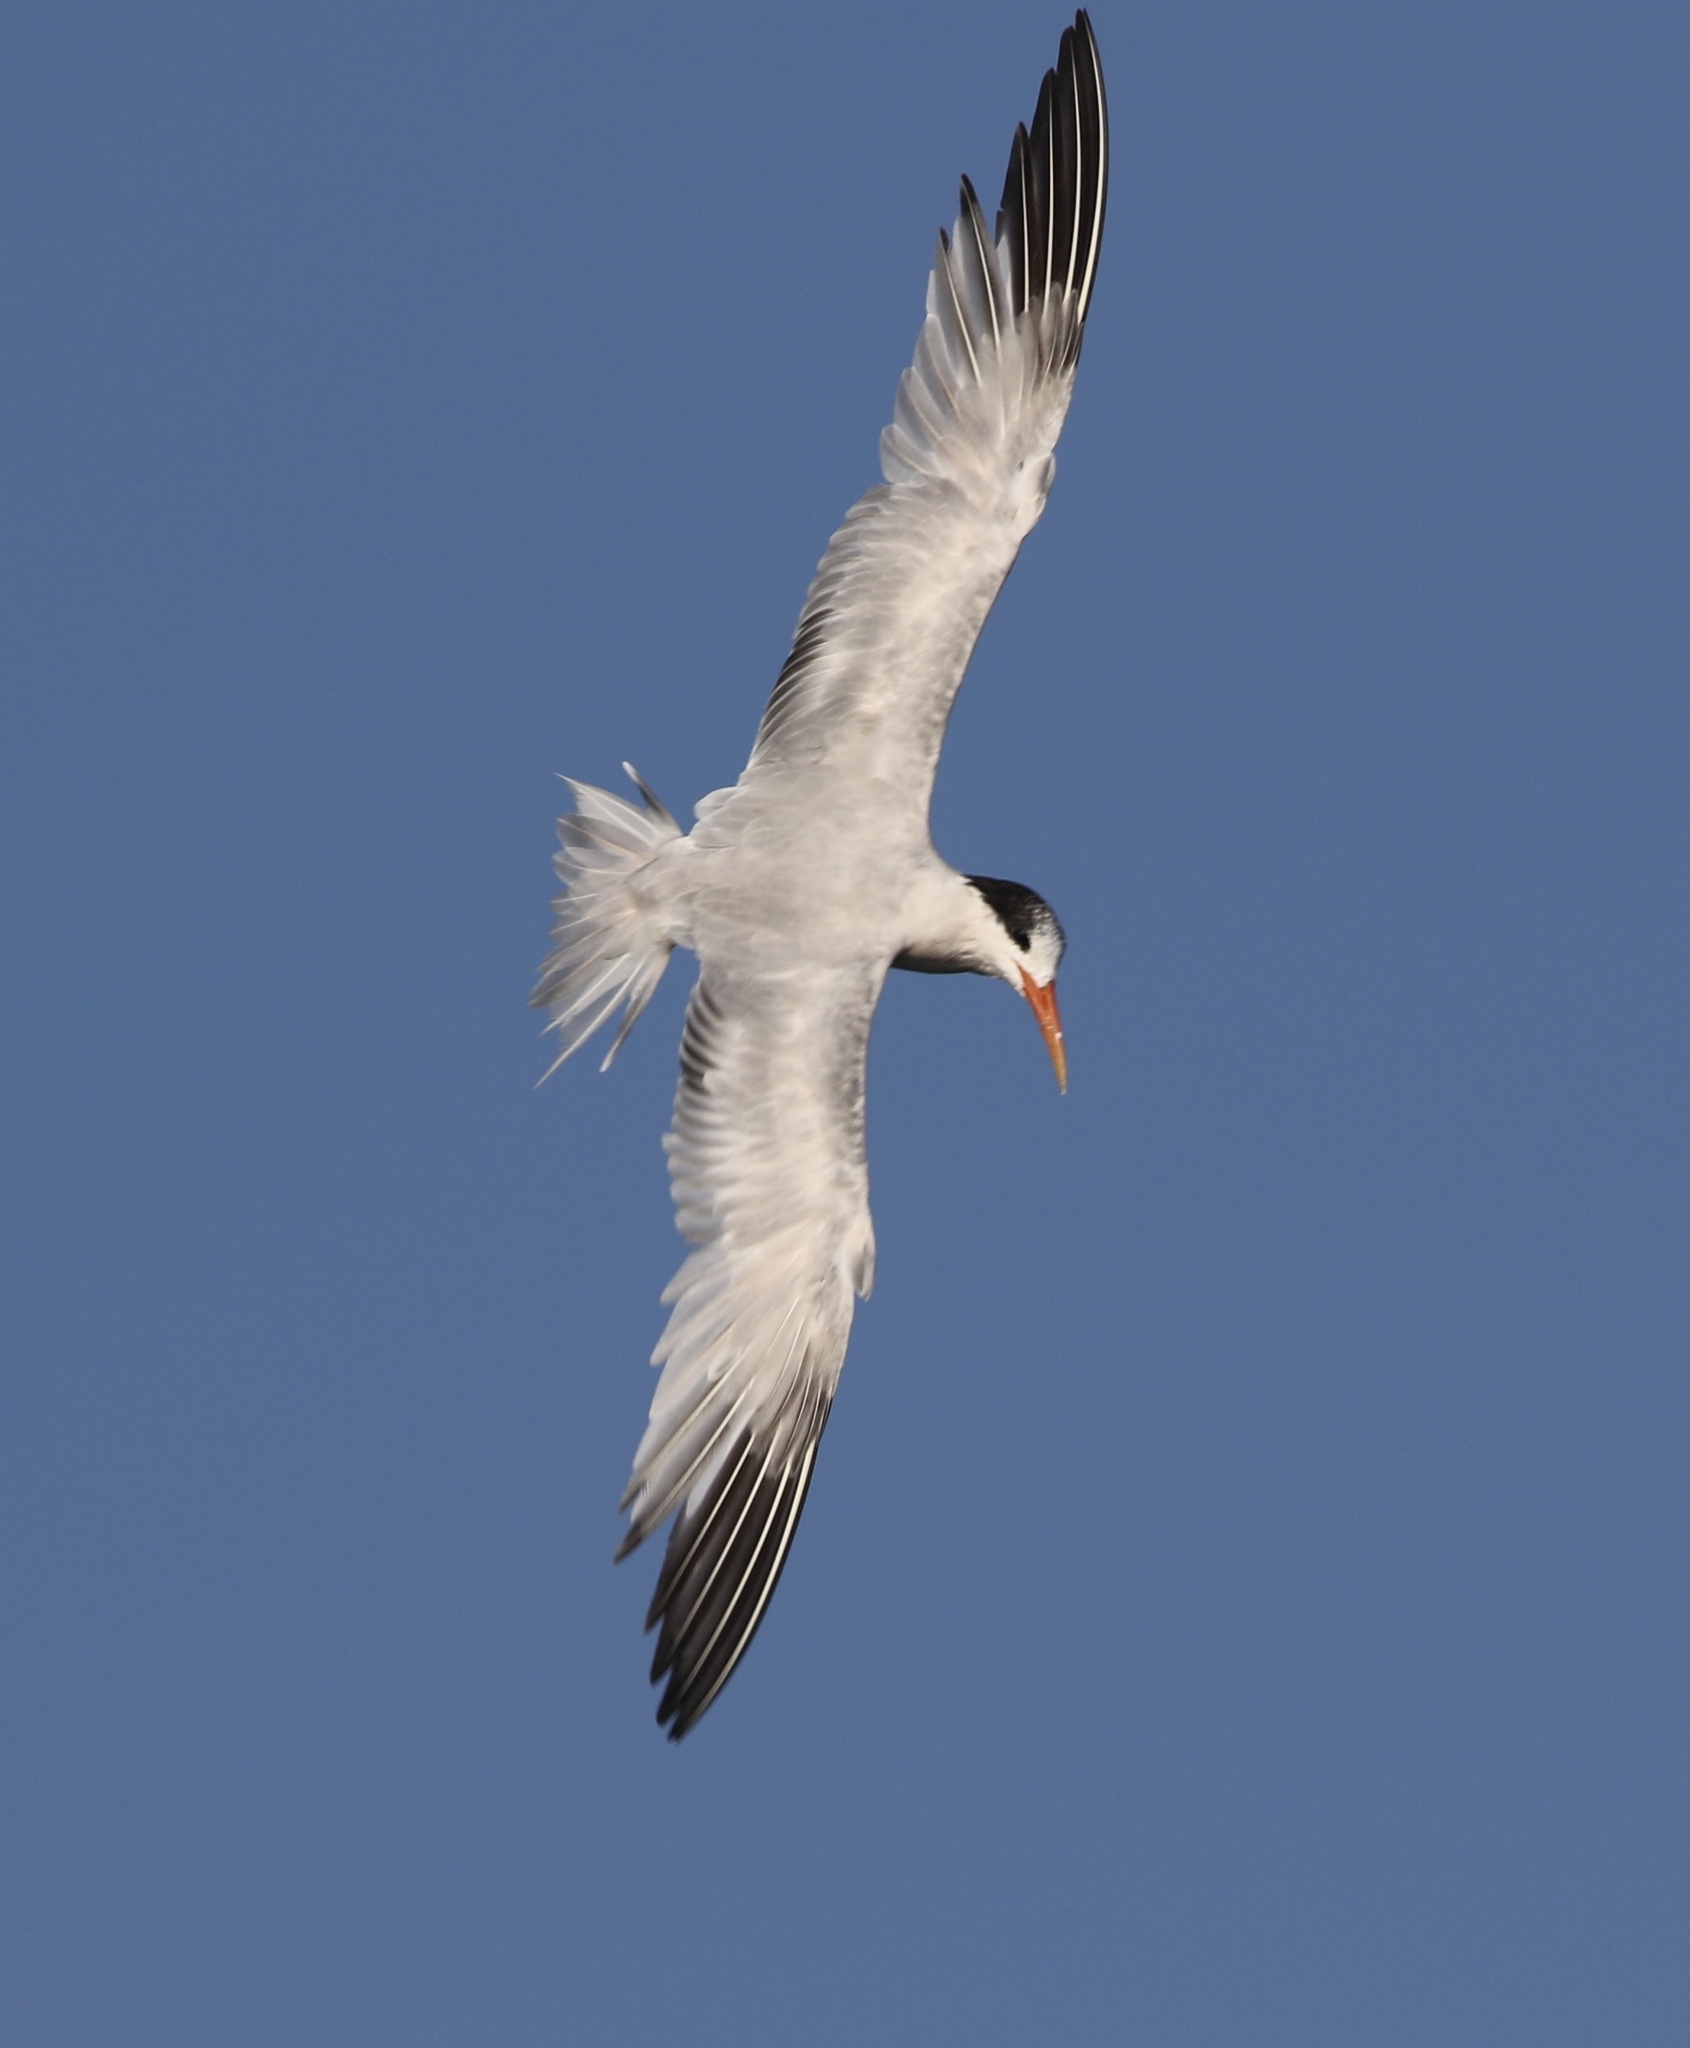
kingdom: Animalia
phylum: Chordata
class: Aves
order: Charadriiformes
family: Laridae
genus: Thalasseus
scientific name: Thalasseus elegans
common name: Elegant tern
